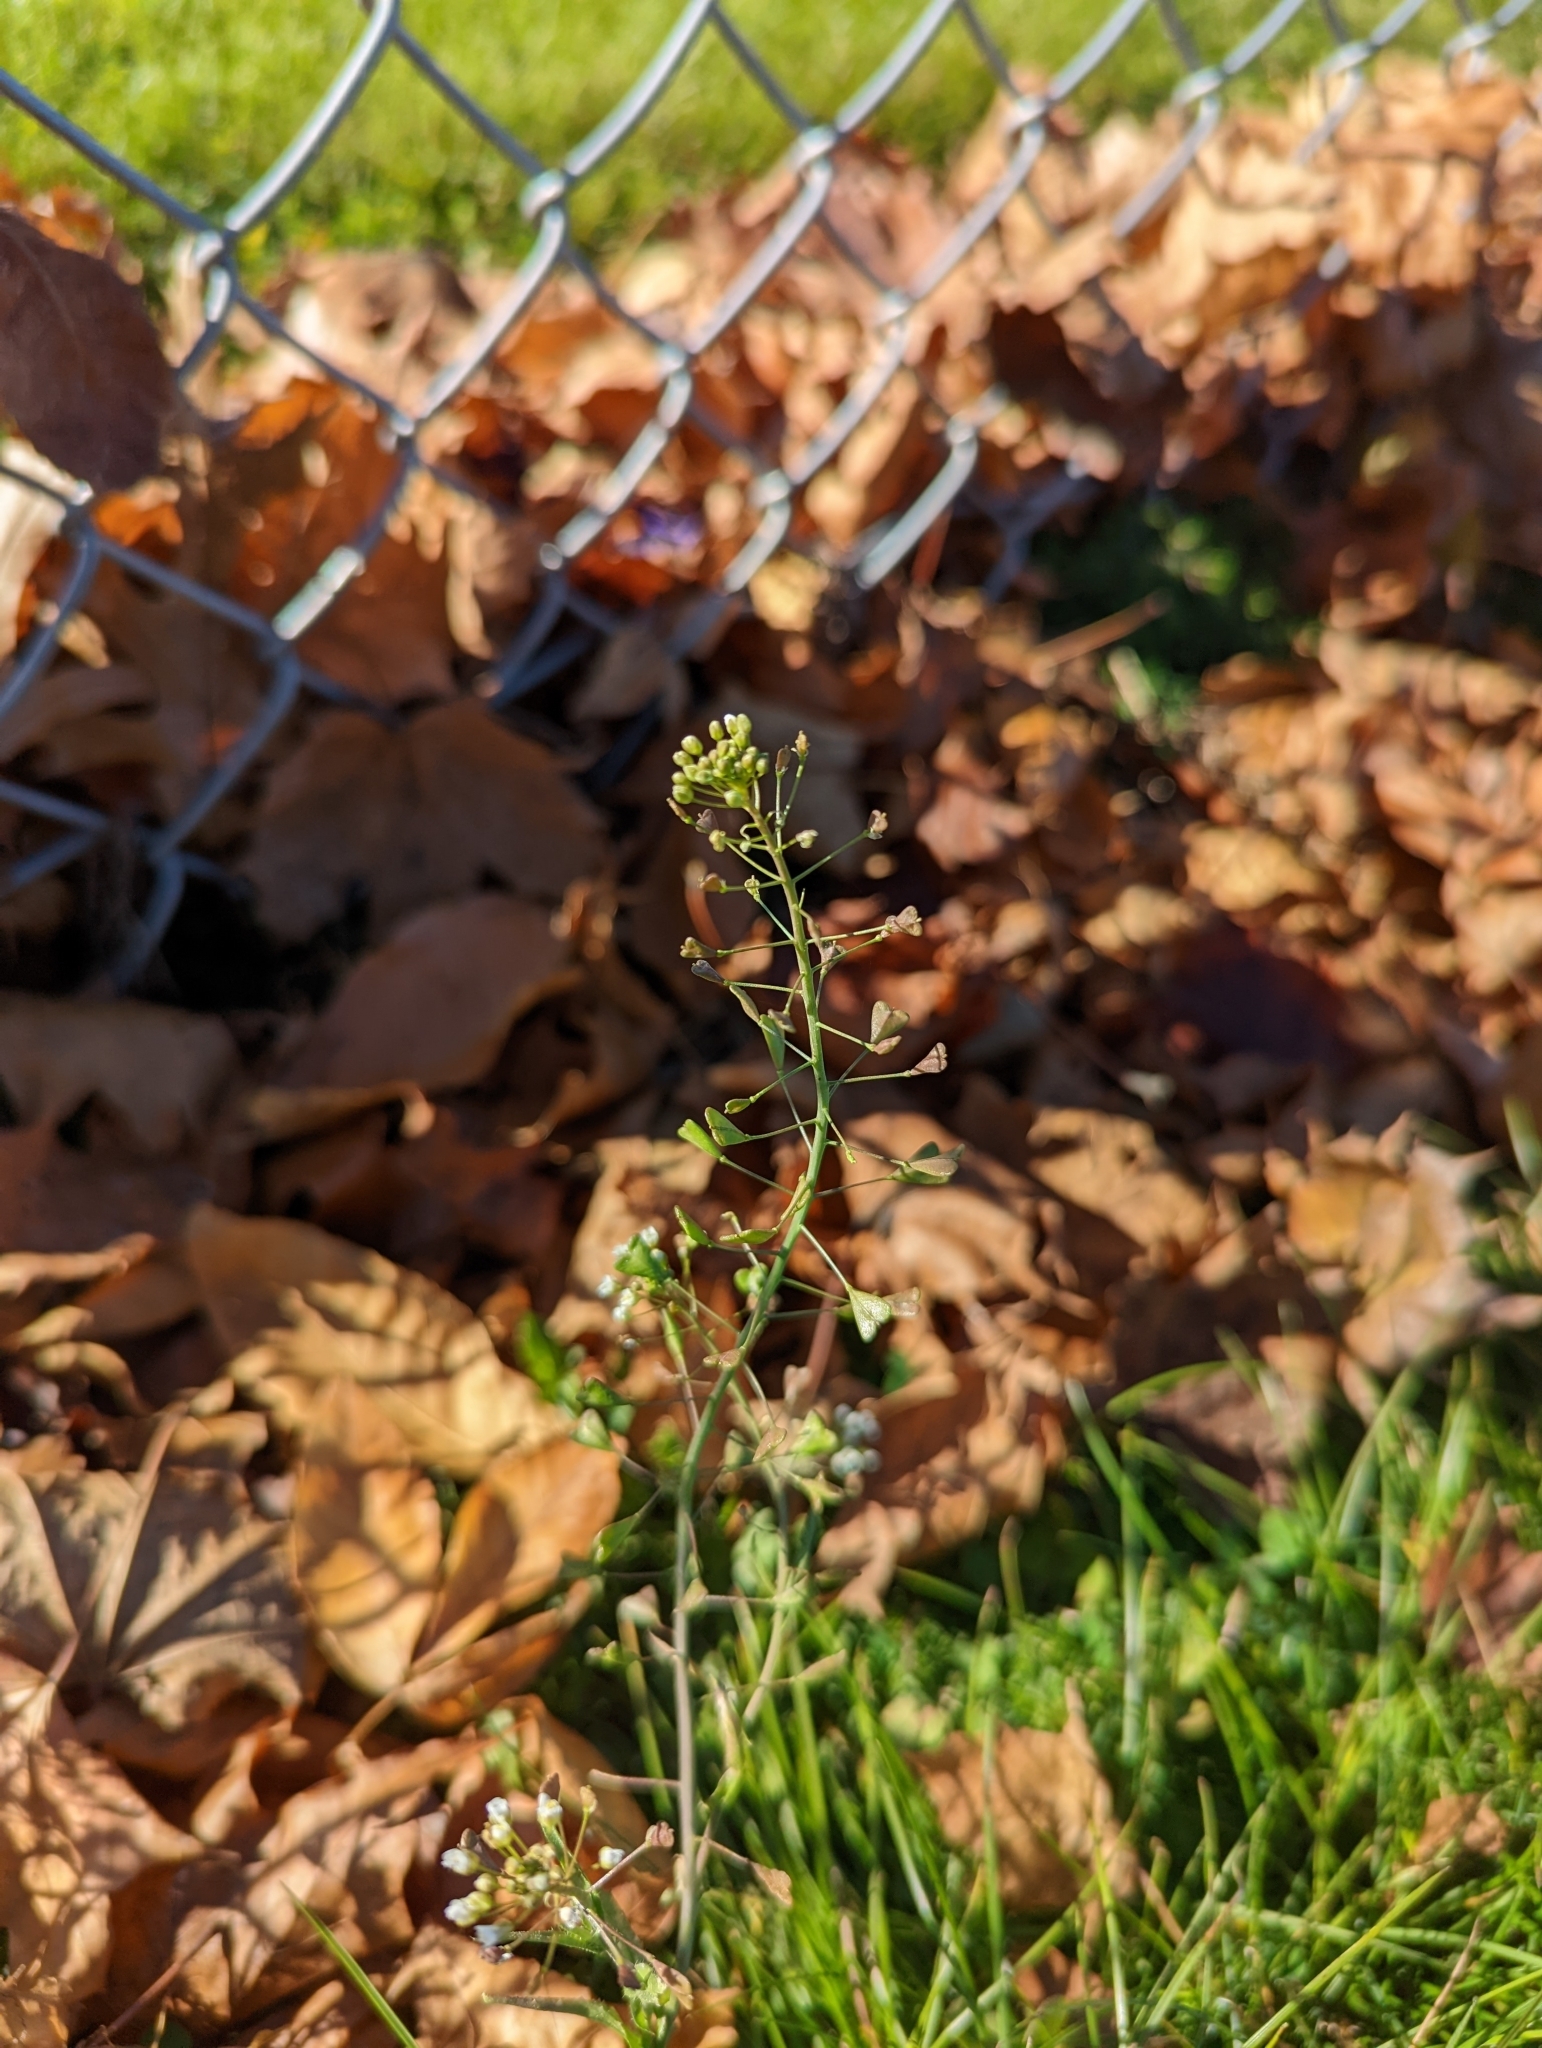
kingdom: Plantae
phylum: Tracheophyta
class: Magnoliopsida
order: Brassicales
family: Brassicaceae
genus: Capsella
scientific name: Capsella bursa-pastoris
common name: Shepherd's purse
